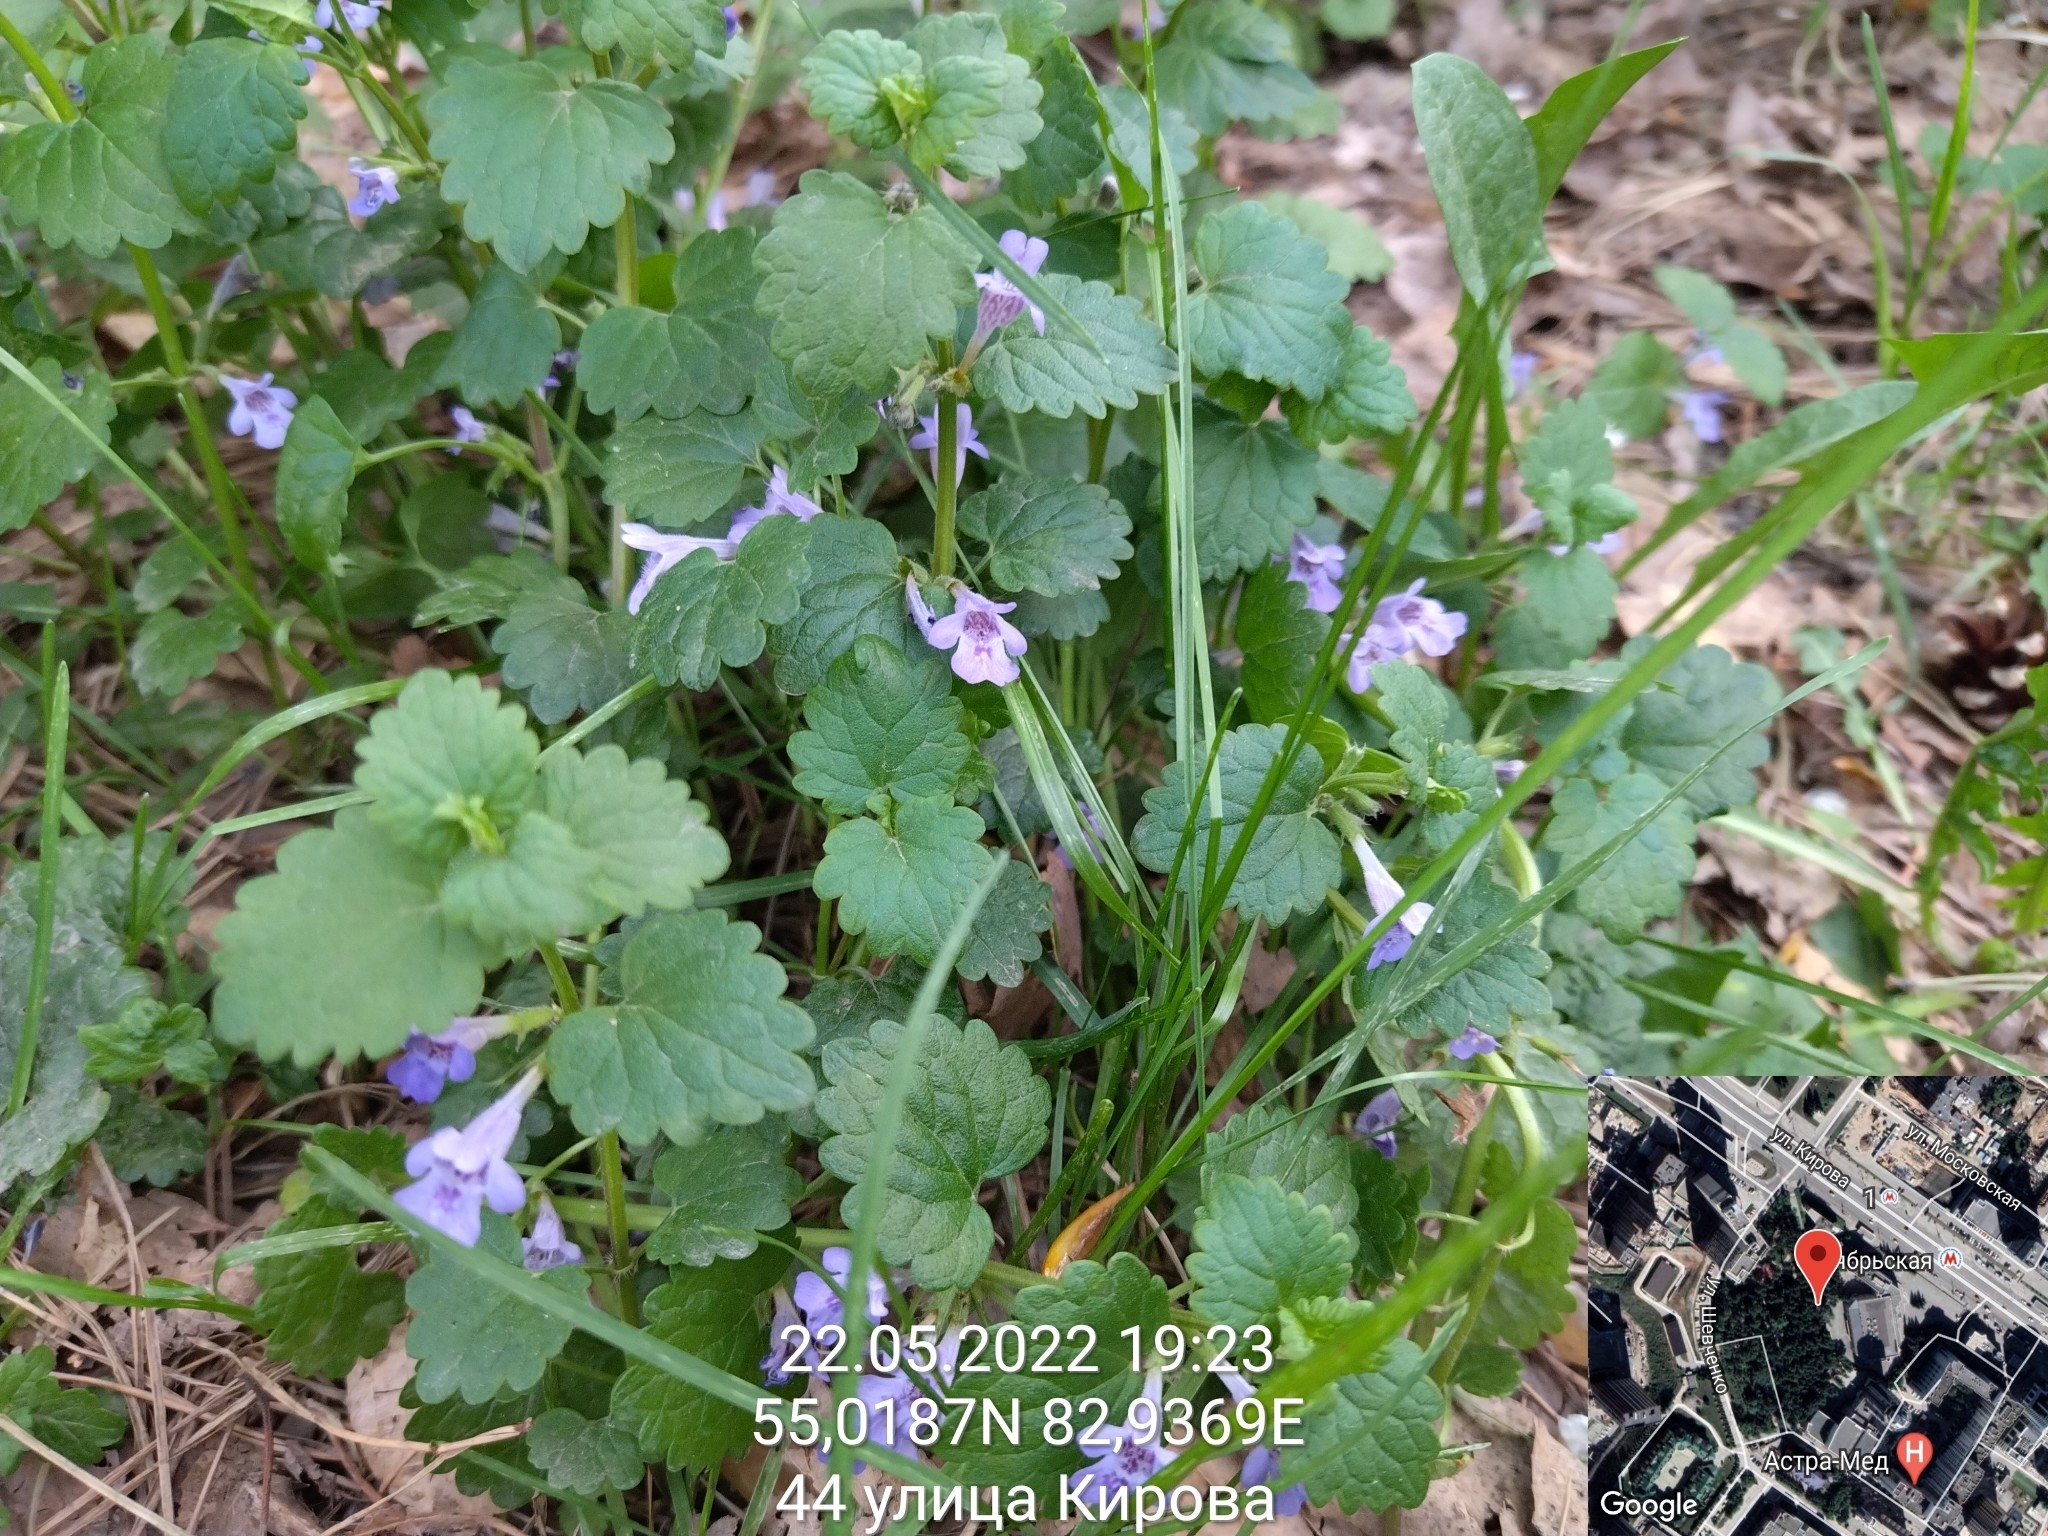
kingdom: Plantae
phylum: Tracheophyta
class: Magnoliopsida
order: Lamiales
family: Lamiaceae
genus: Glechoma
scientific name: Glechoma hederacea
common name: Ground ivy
